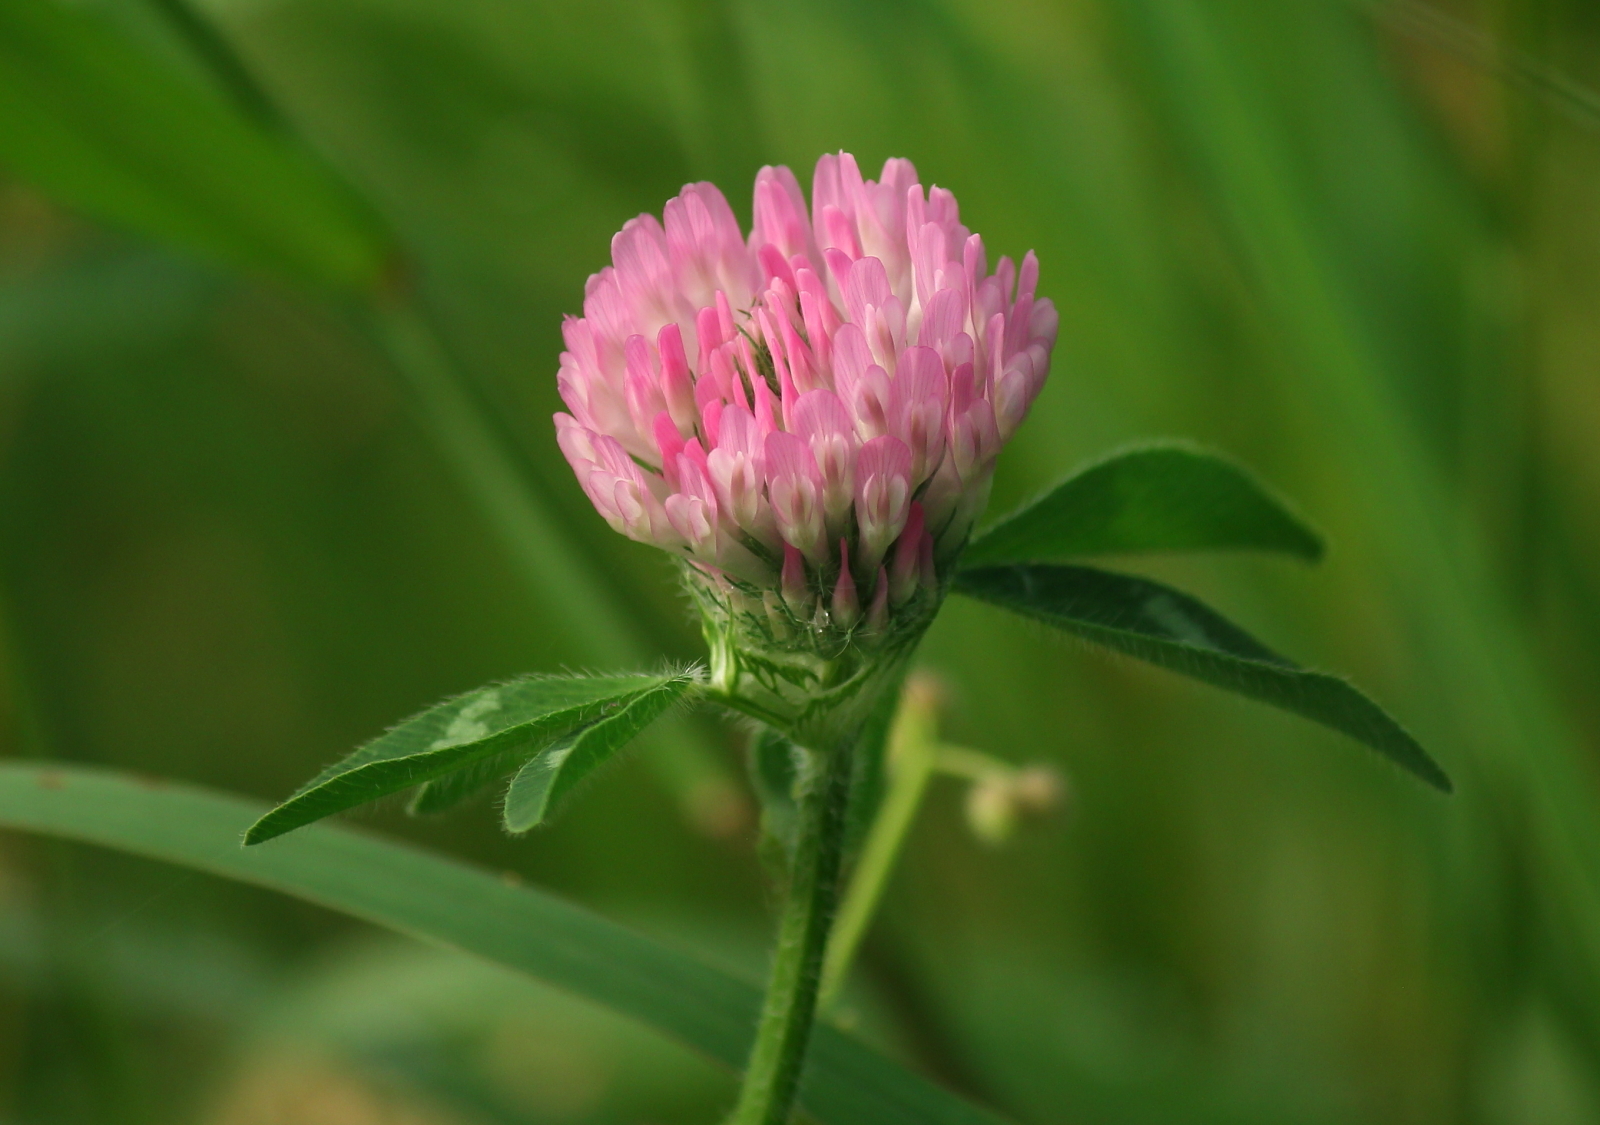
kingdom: Plantae
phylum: Tracheophyta
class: Magnoliopsida
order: Fabales
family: Fabaceae
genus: Trifolium
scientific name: Trifolium pratense
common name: Red clover
